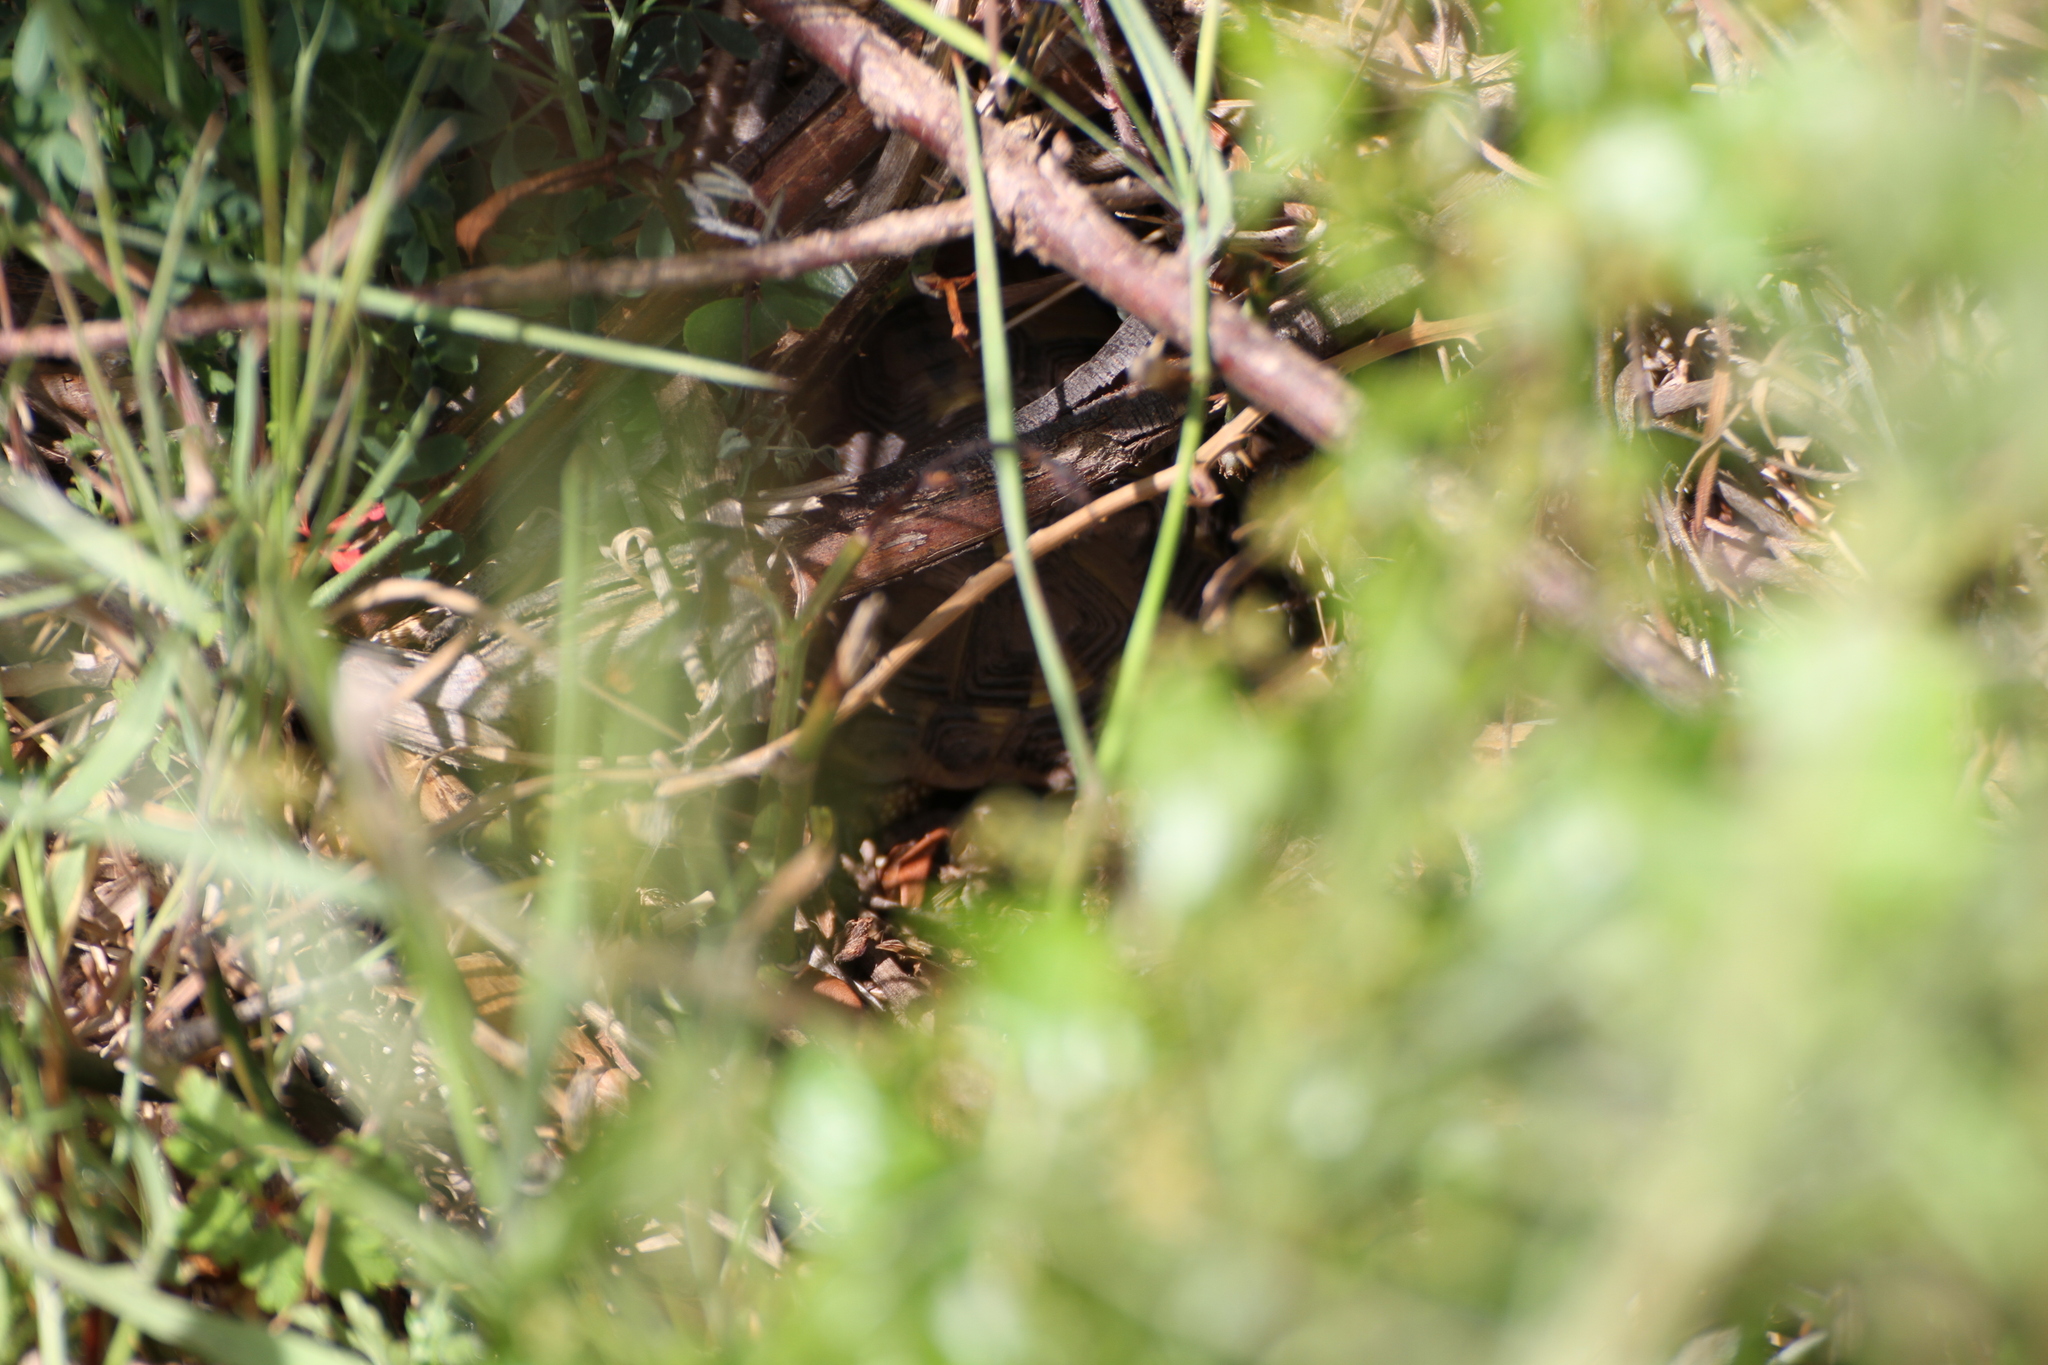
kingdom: Animalia
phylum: Chordata
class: Testudines
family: Testudinidae
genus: Testudo
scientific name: Testudo hermanni
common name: Hermann's tortoise
